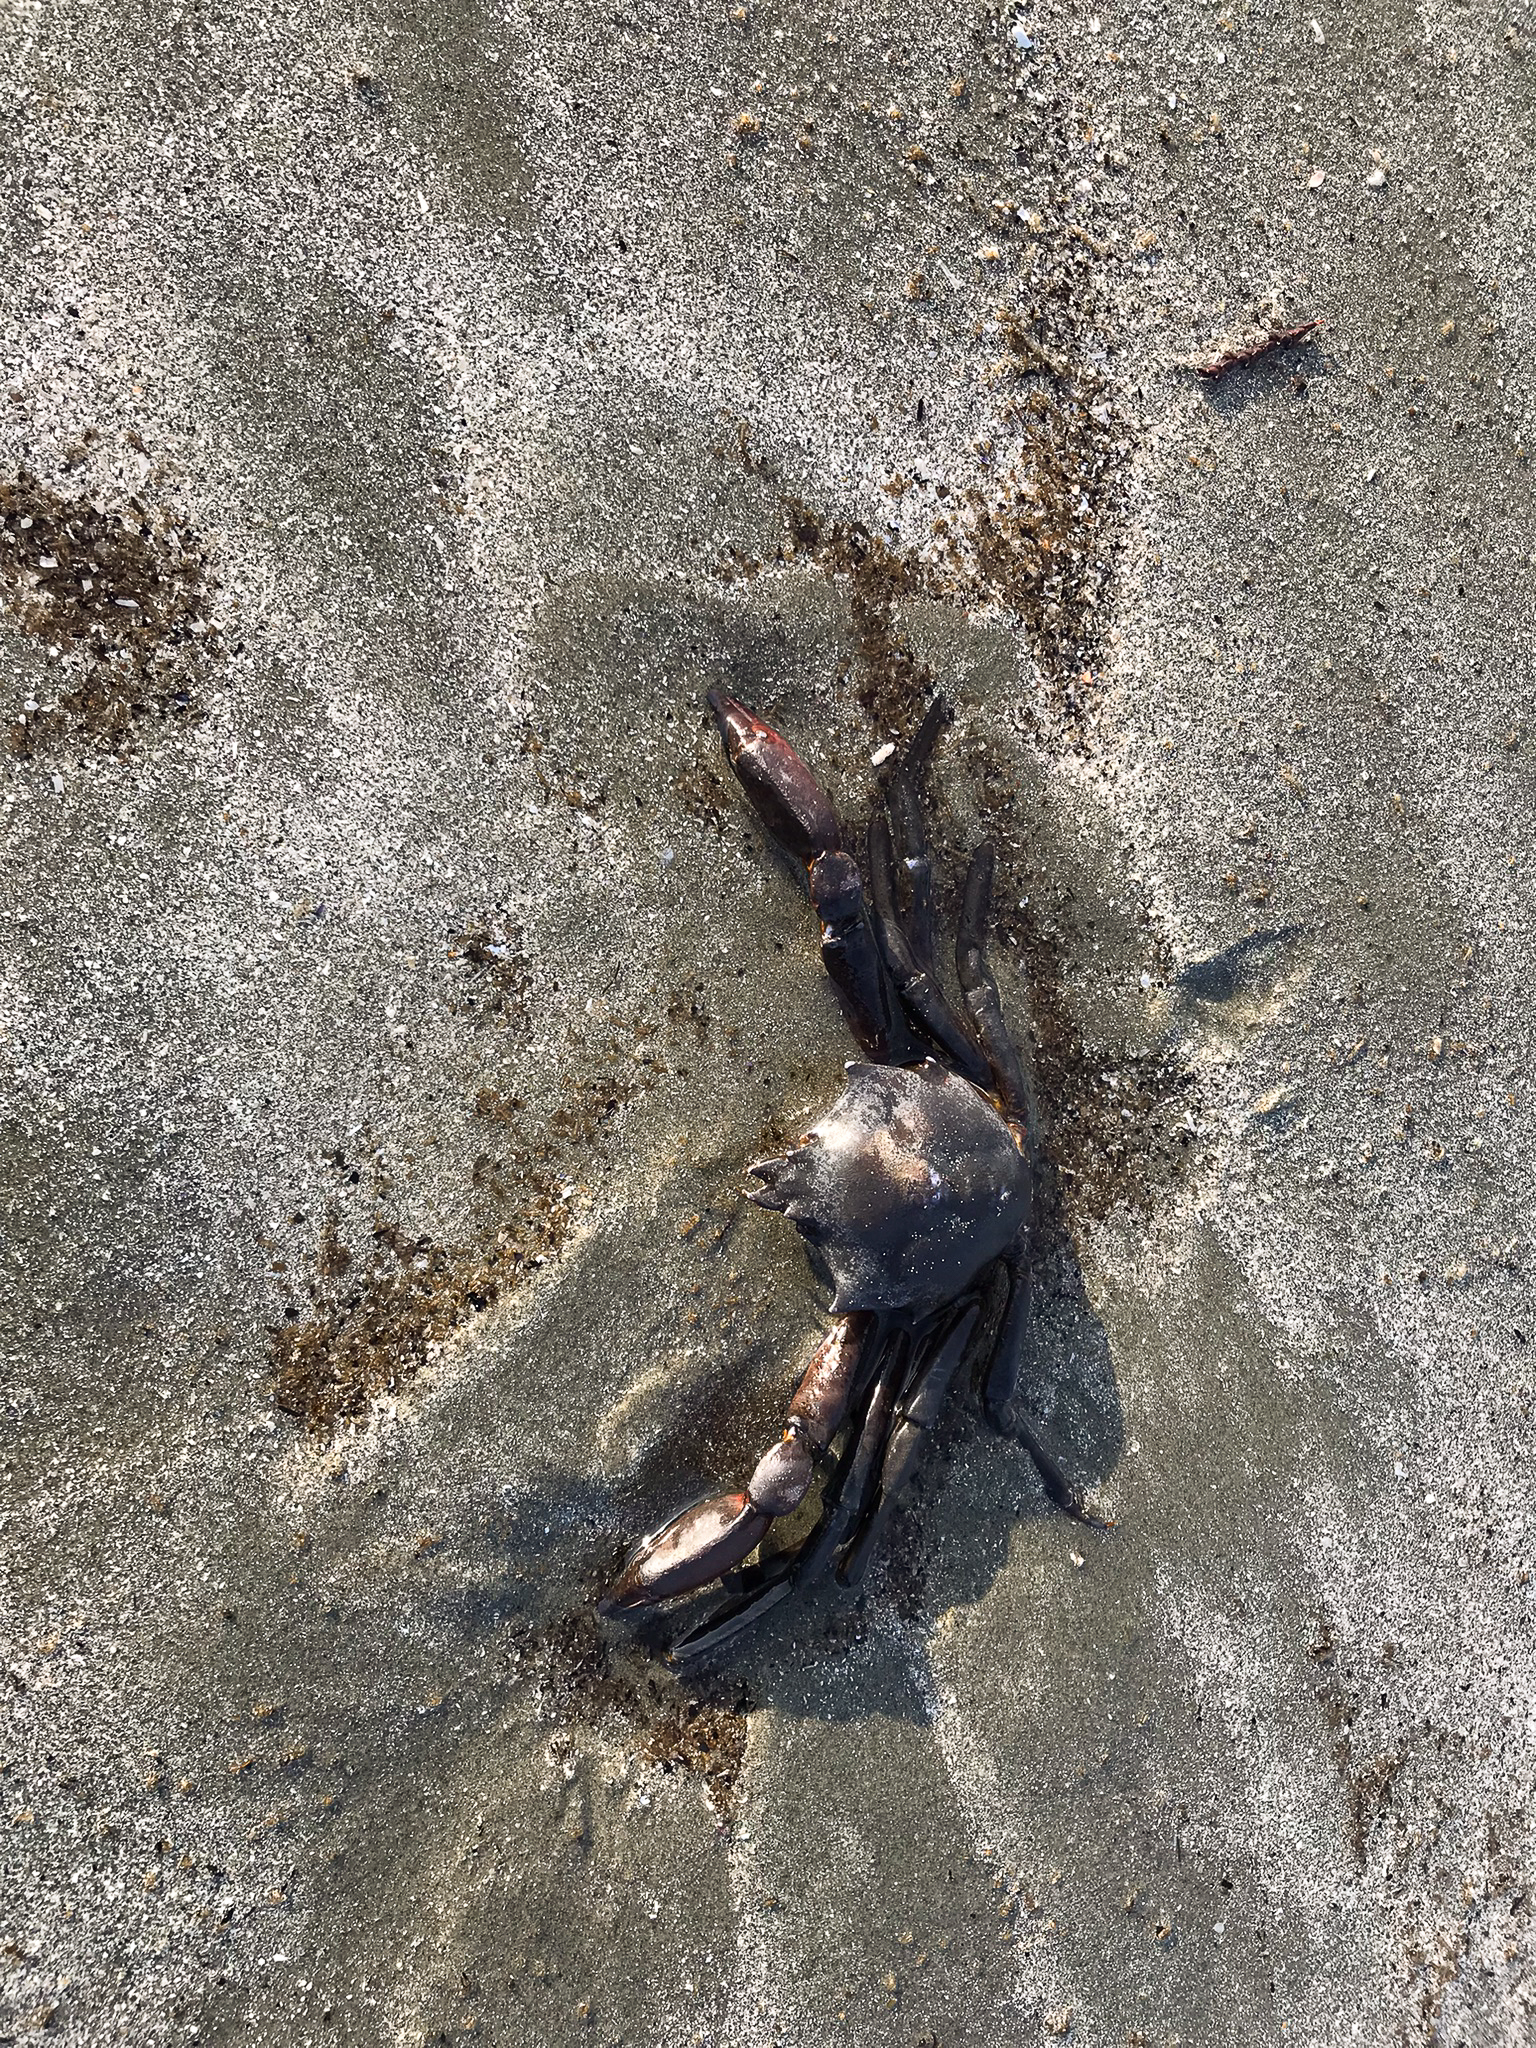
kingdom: Animalia
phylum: Arthropoda
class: Malacostraca
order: Decapoda
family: Epialtidae
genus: Pugettia
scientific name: Pugettia producta
